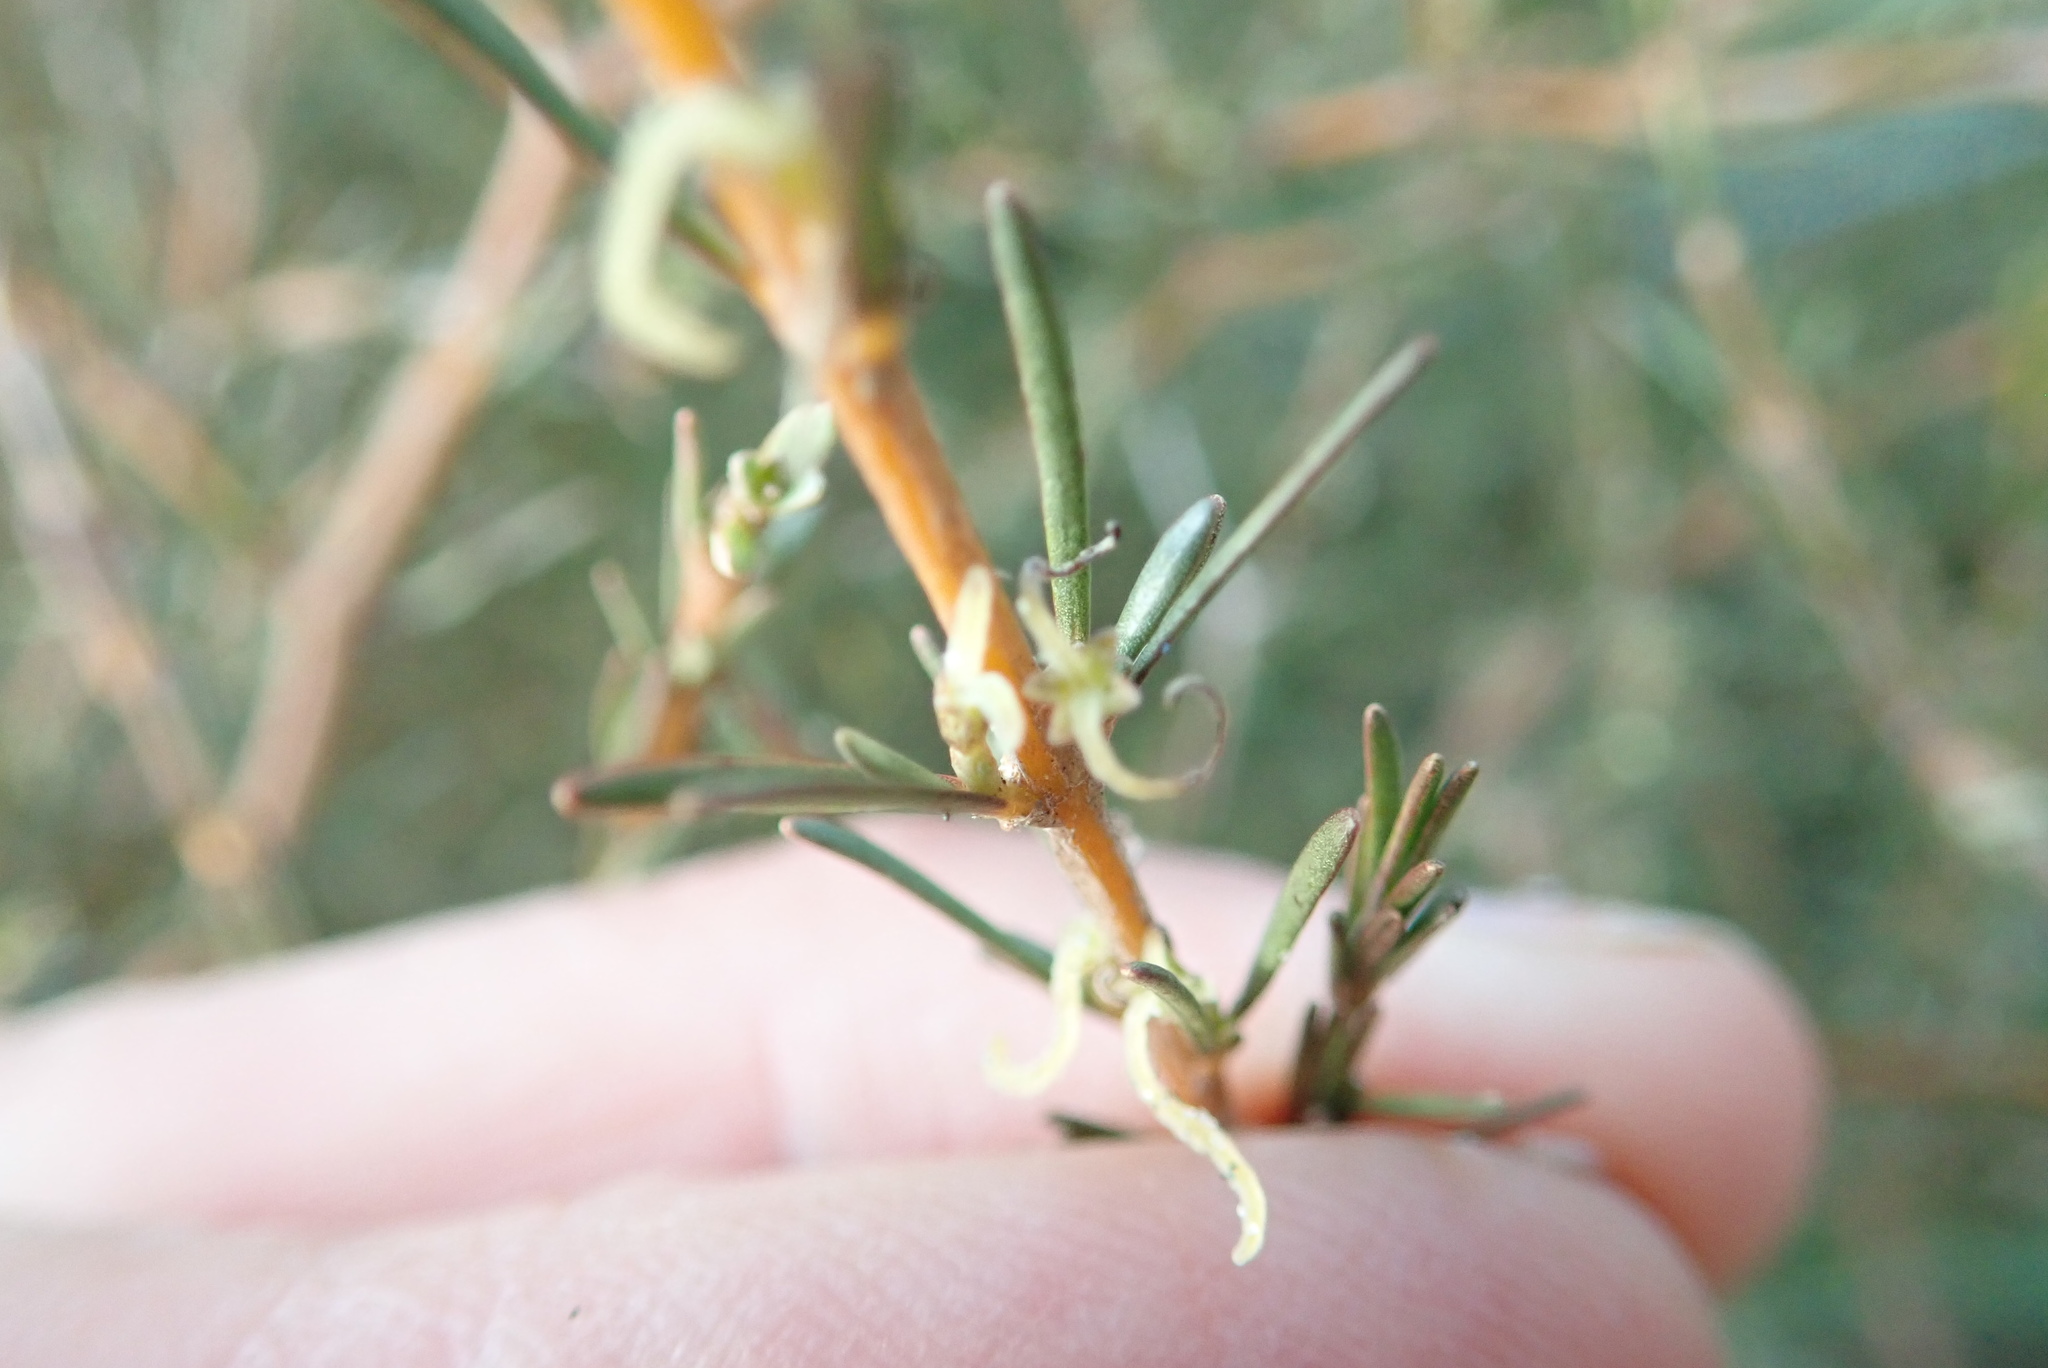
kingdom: Plantae
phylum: Tracheophyta
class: Magnoliopsida
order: Gentianales
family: Rubiaceae
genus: Coprosma
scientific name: Coprosma acerosa
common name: Sand coprosma
